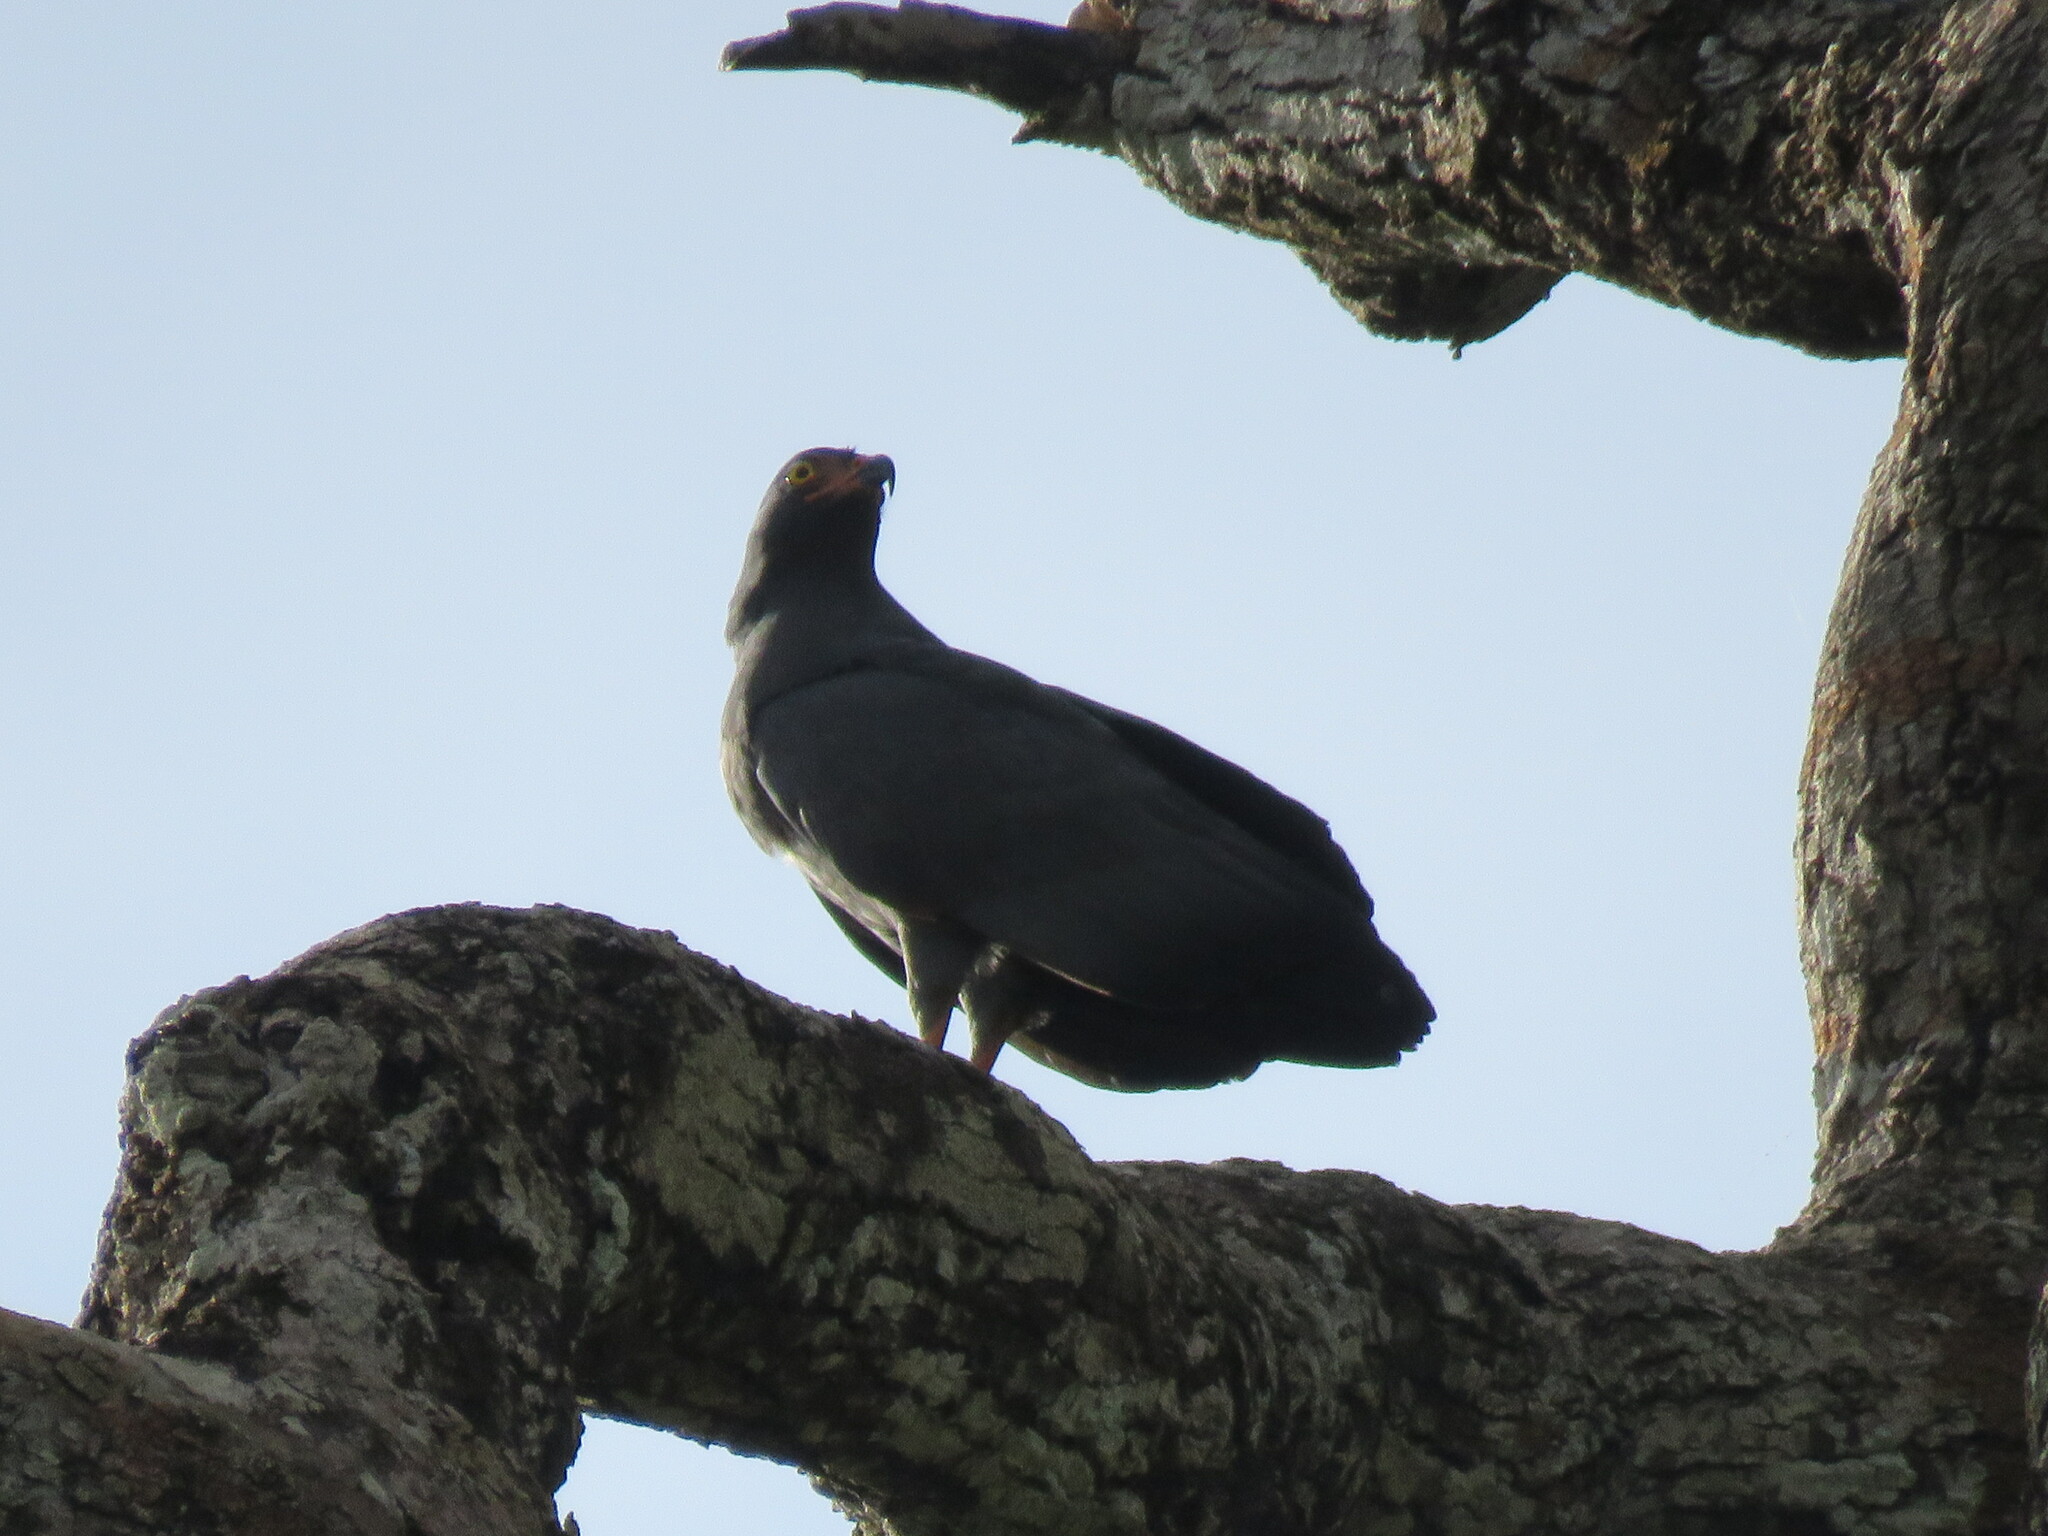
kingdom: Animalia
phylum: Chordata
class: Aves
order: Accipitriformes
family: Accipitridae
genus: Helicolestes
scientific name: Helicolestes hamatus
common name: Slender-billed kite
